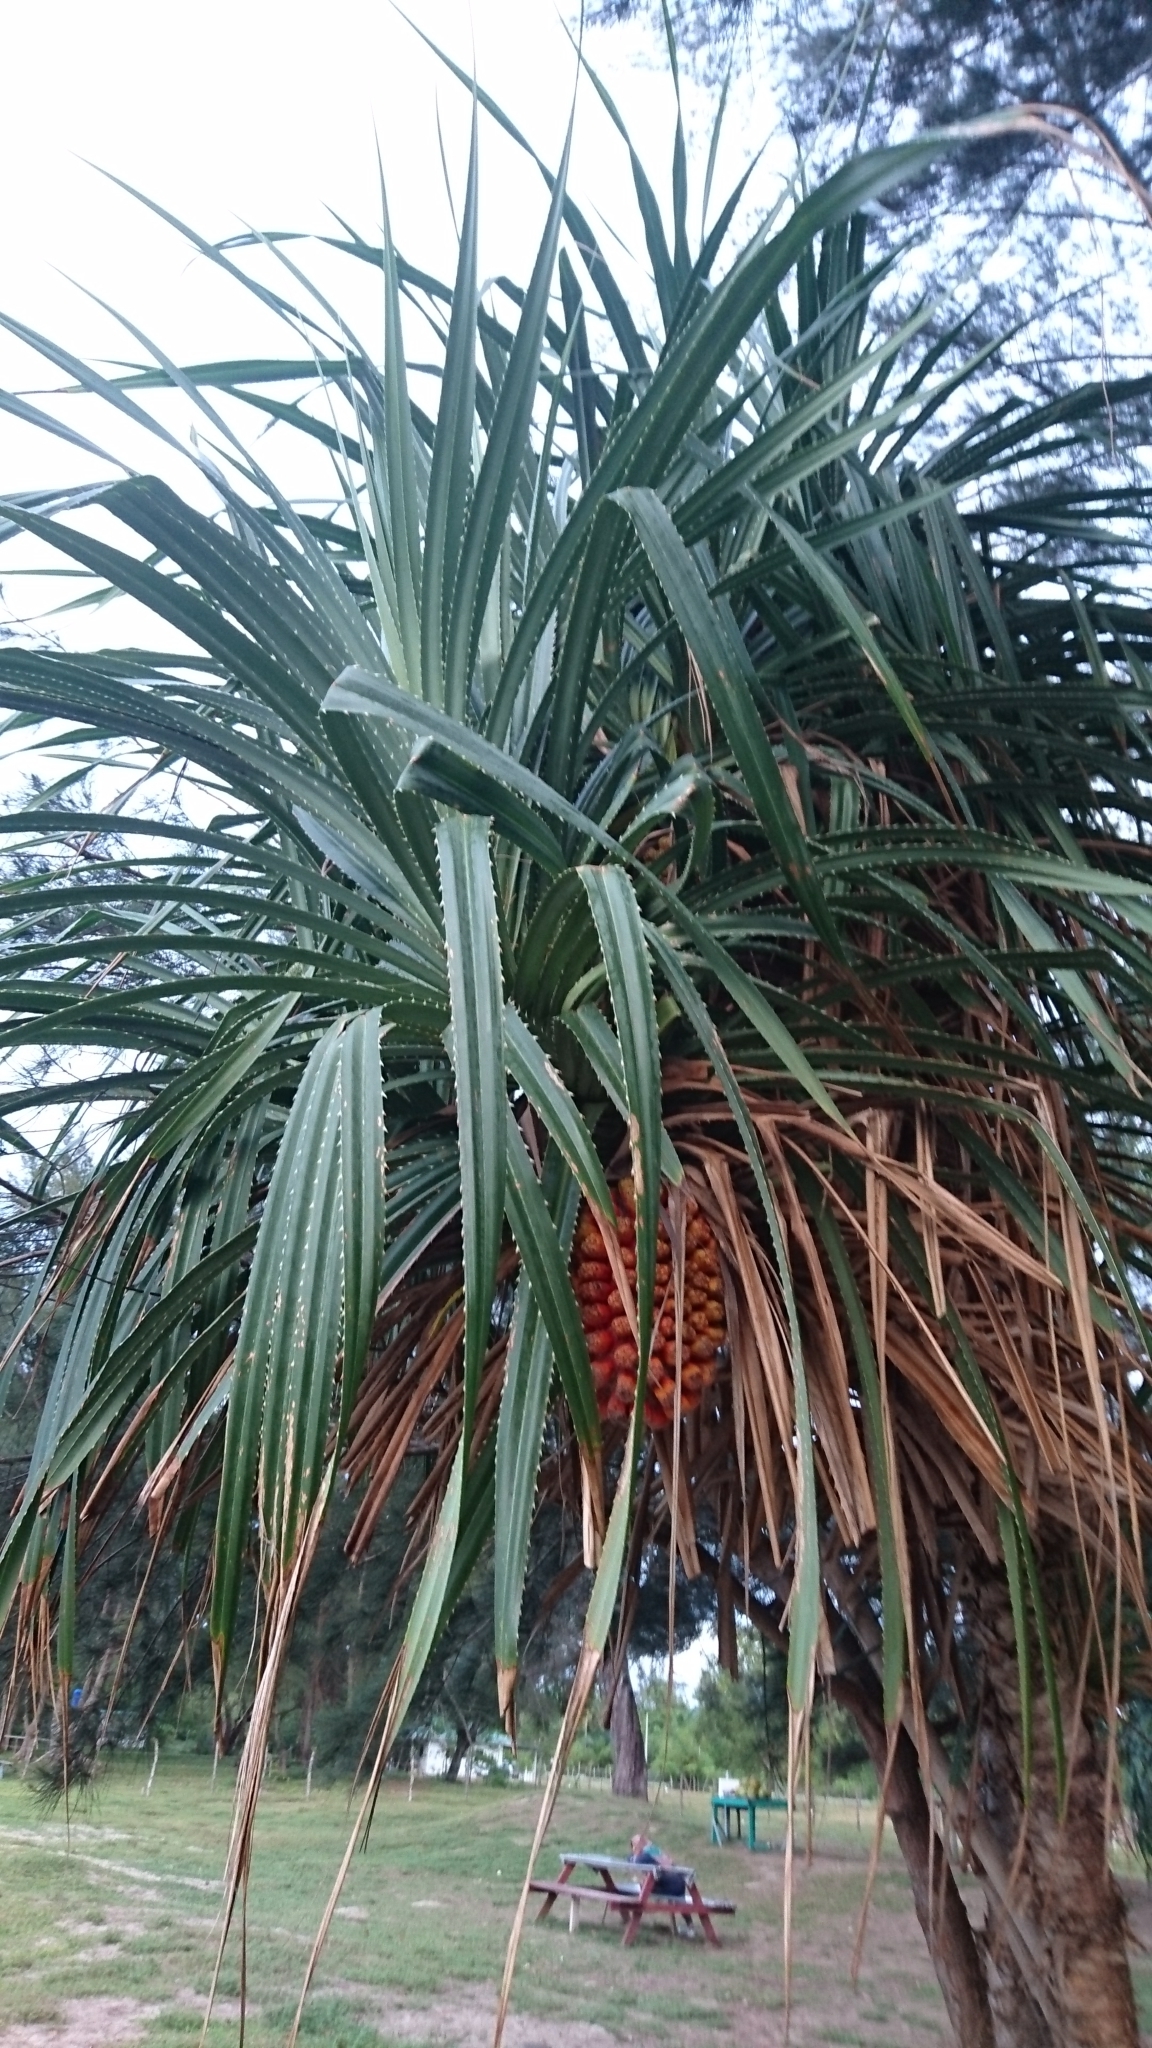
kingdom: Plantae
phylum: Tracheophyta
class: Liliopsida
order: Pandanales
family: Pandanaceae
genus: Pandanus
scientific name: Pandanus tectorius
